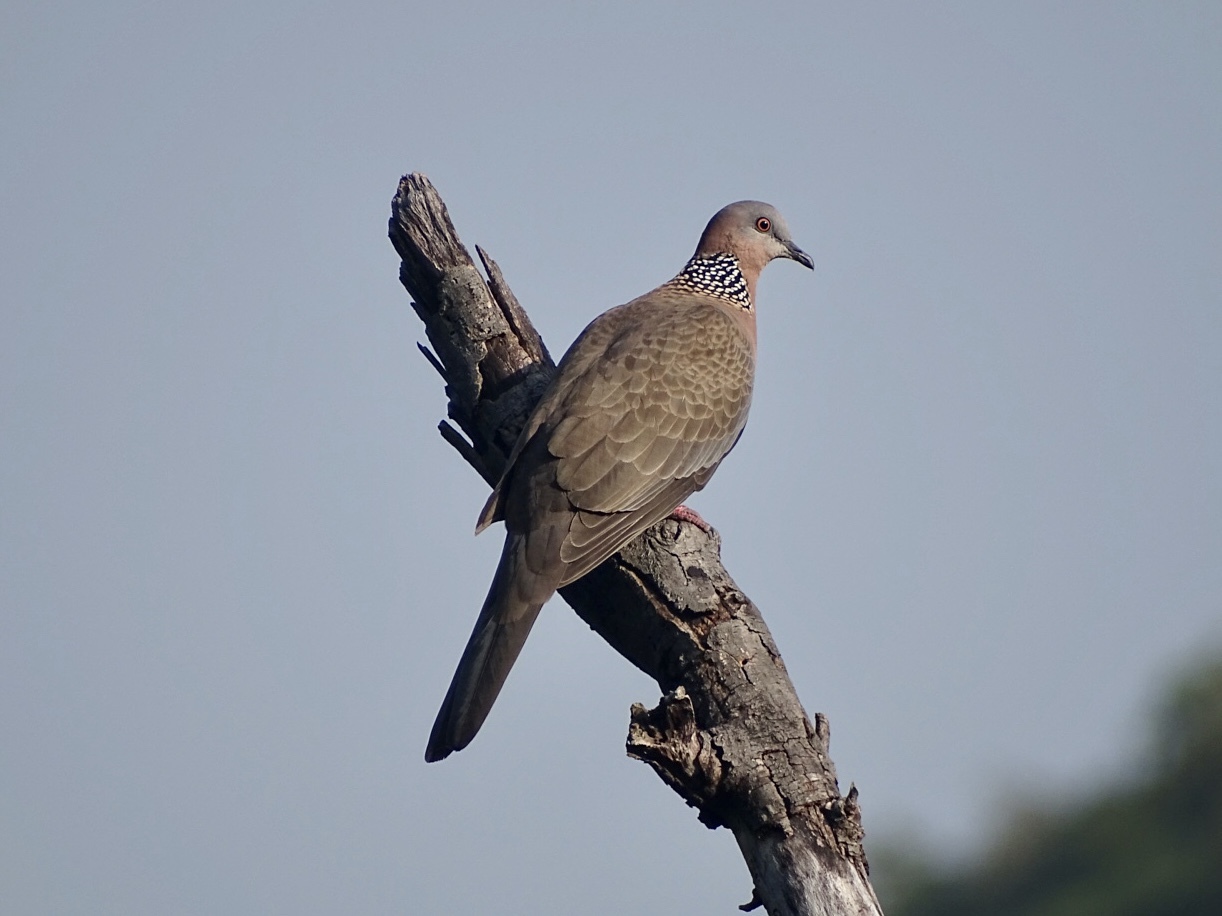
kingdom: Animalia
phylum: Chordata
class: Aves
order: Columbiformes
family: Columbidae
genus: Spilopelia
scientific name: Spilopelia chinensis
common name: Spotted dove
